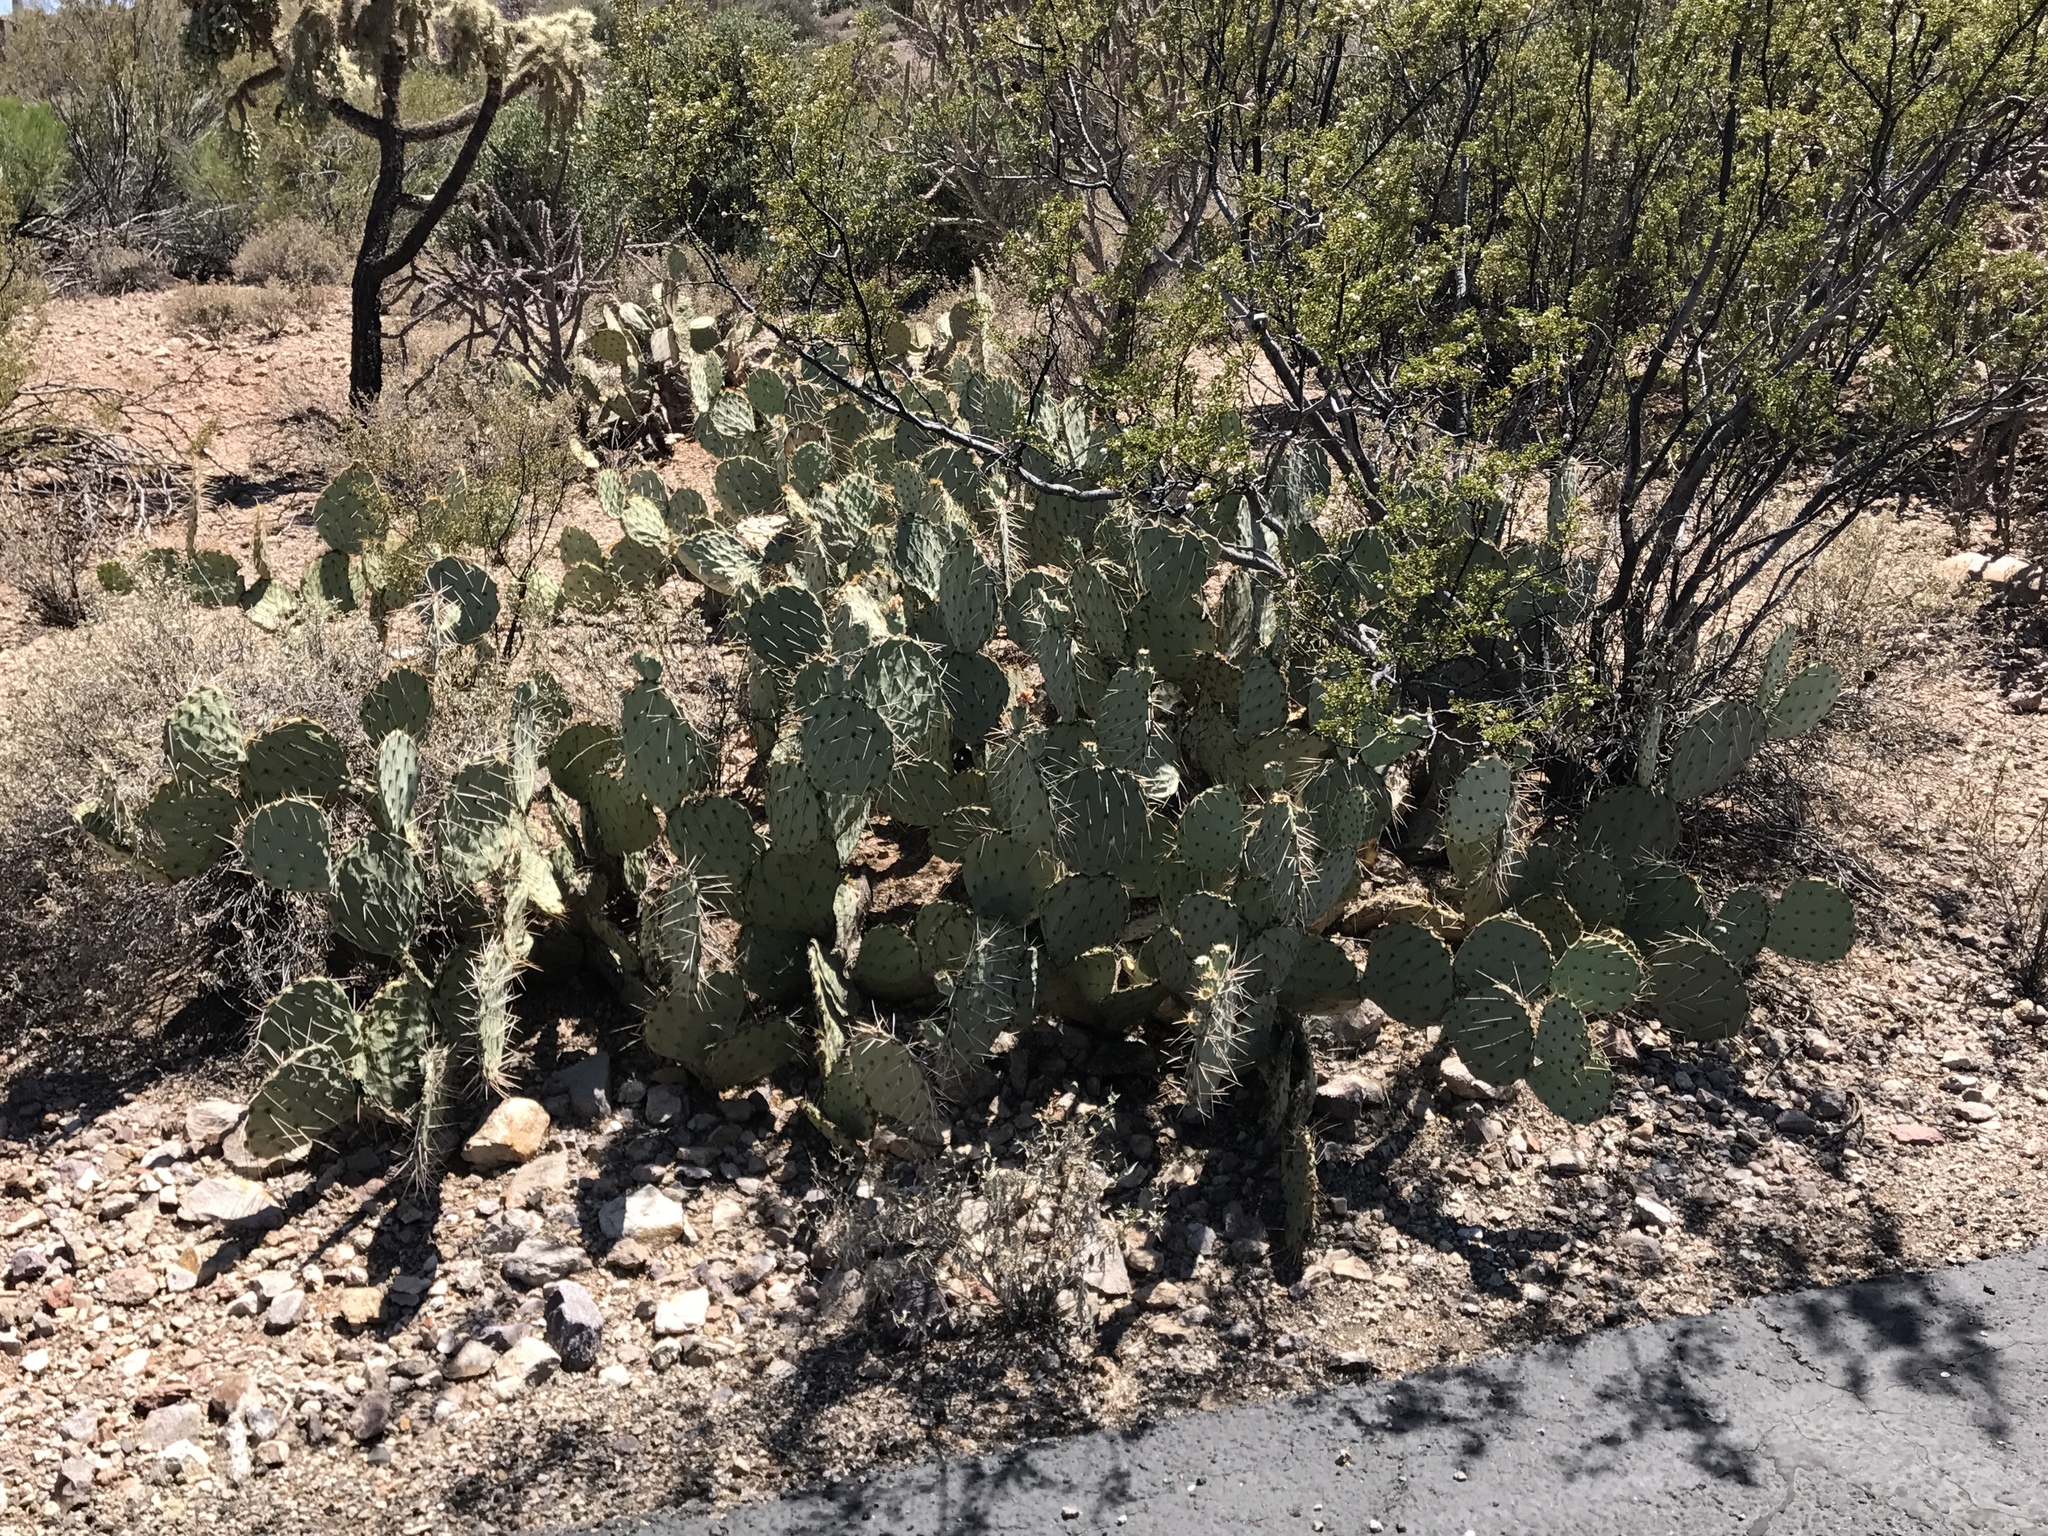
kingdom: Plantae
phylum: Tracheophyta
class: Magnoliopsida
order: Caryophyllales
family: Cactaceae
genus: Opuntia
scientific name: Opuntia engelmannii
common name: Cactus-apple
